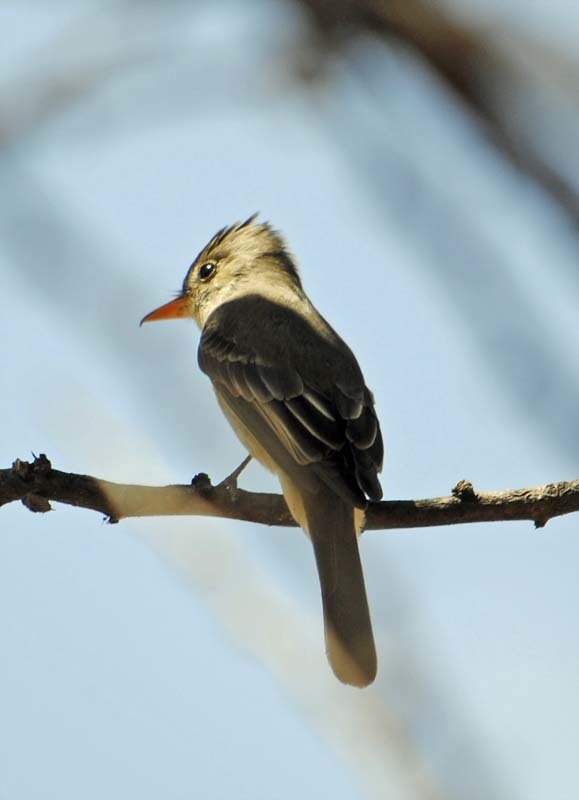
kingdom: Animalia
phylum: Chordata
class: Aves
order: Passeriformes
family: Tyrannidae
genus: Contopus
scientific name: Contopus pertinax
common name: Greater pewee
